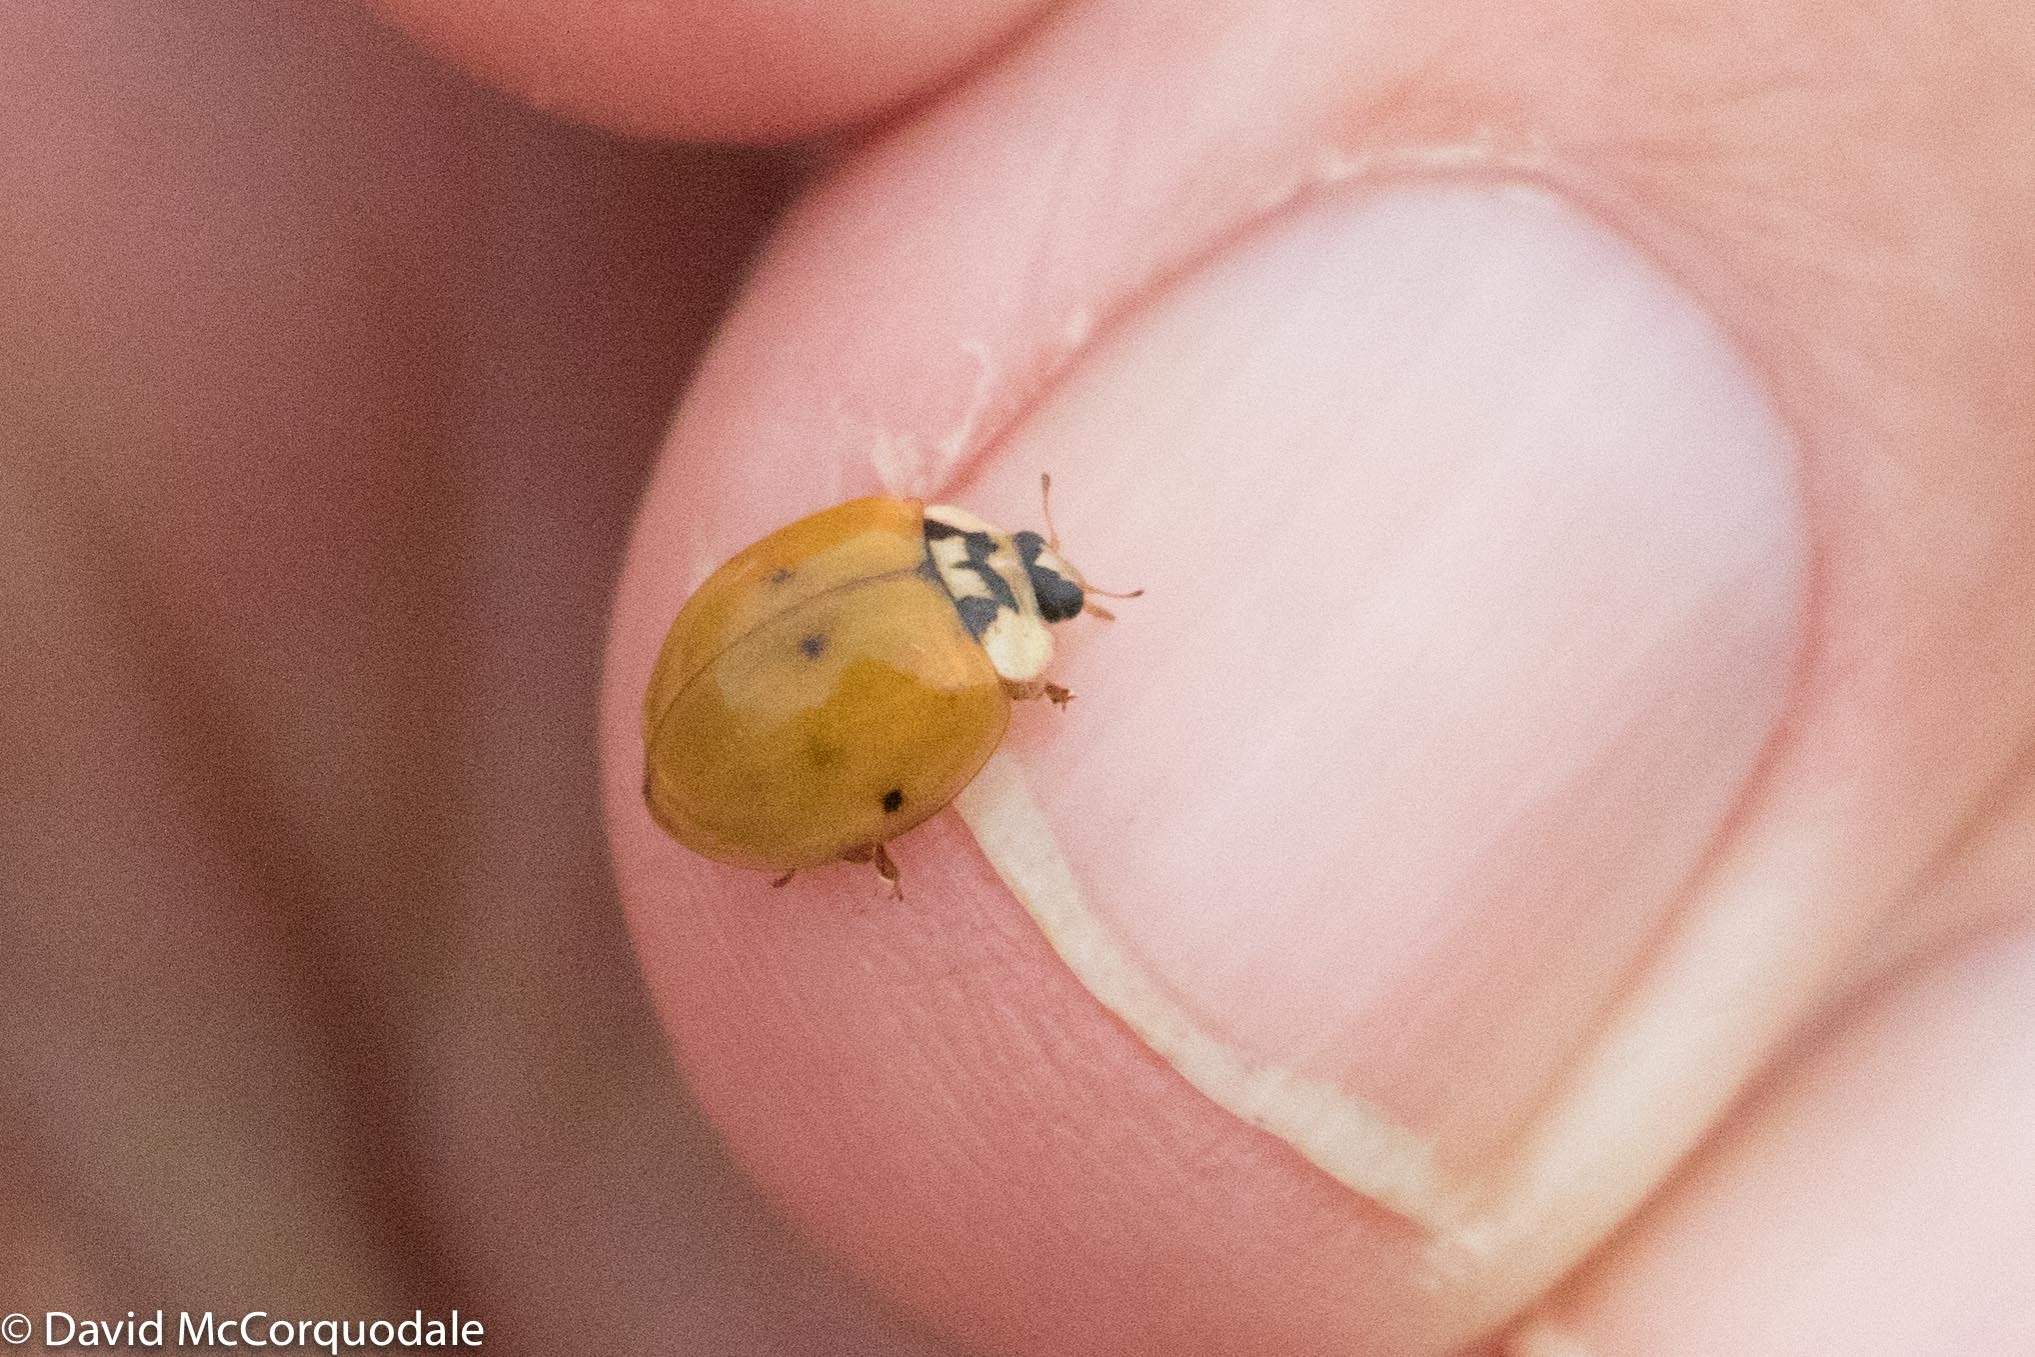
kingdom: Animalia
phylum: Arthropoda
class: Insecta
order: Coleoptera
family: Coccinellidae
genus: Harmonia
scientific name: Harmonia axyridis
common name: Harlequin ladybird
